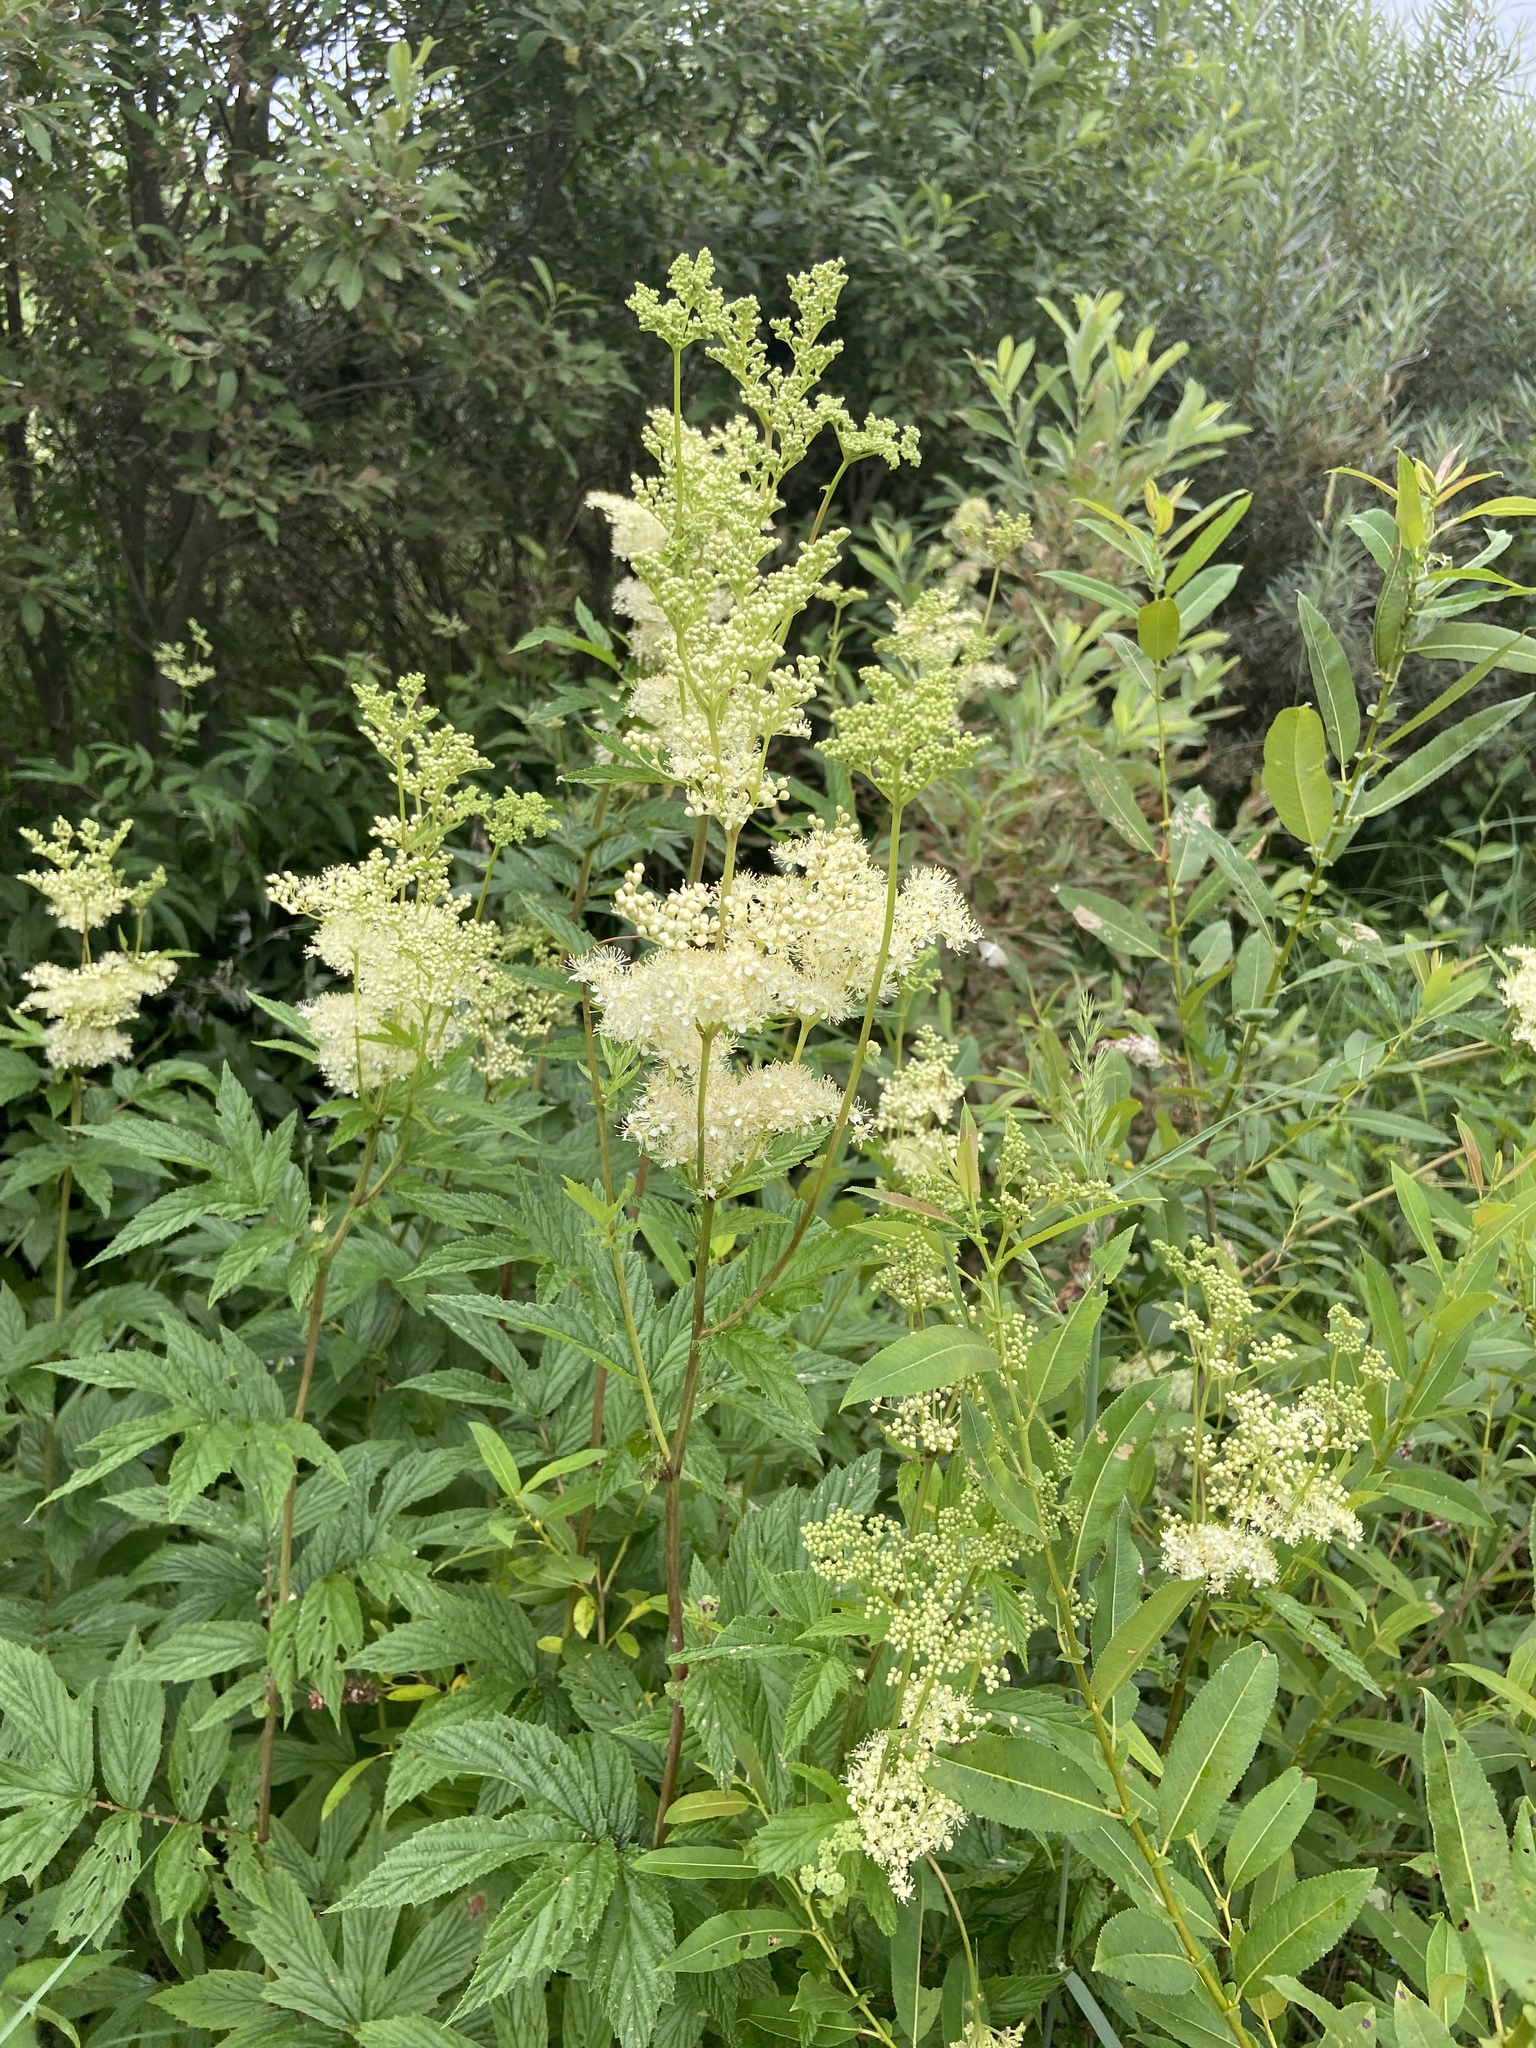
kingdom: Plantae
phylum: Tracheophyta
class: Magnoliopsida
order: Rosales
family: Rosaceae
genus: Filipendula
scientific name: Filipendula ulmaria
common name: Meadowsweet
